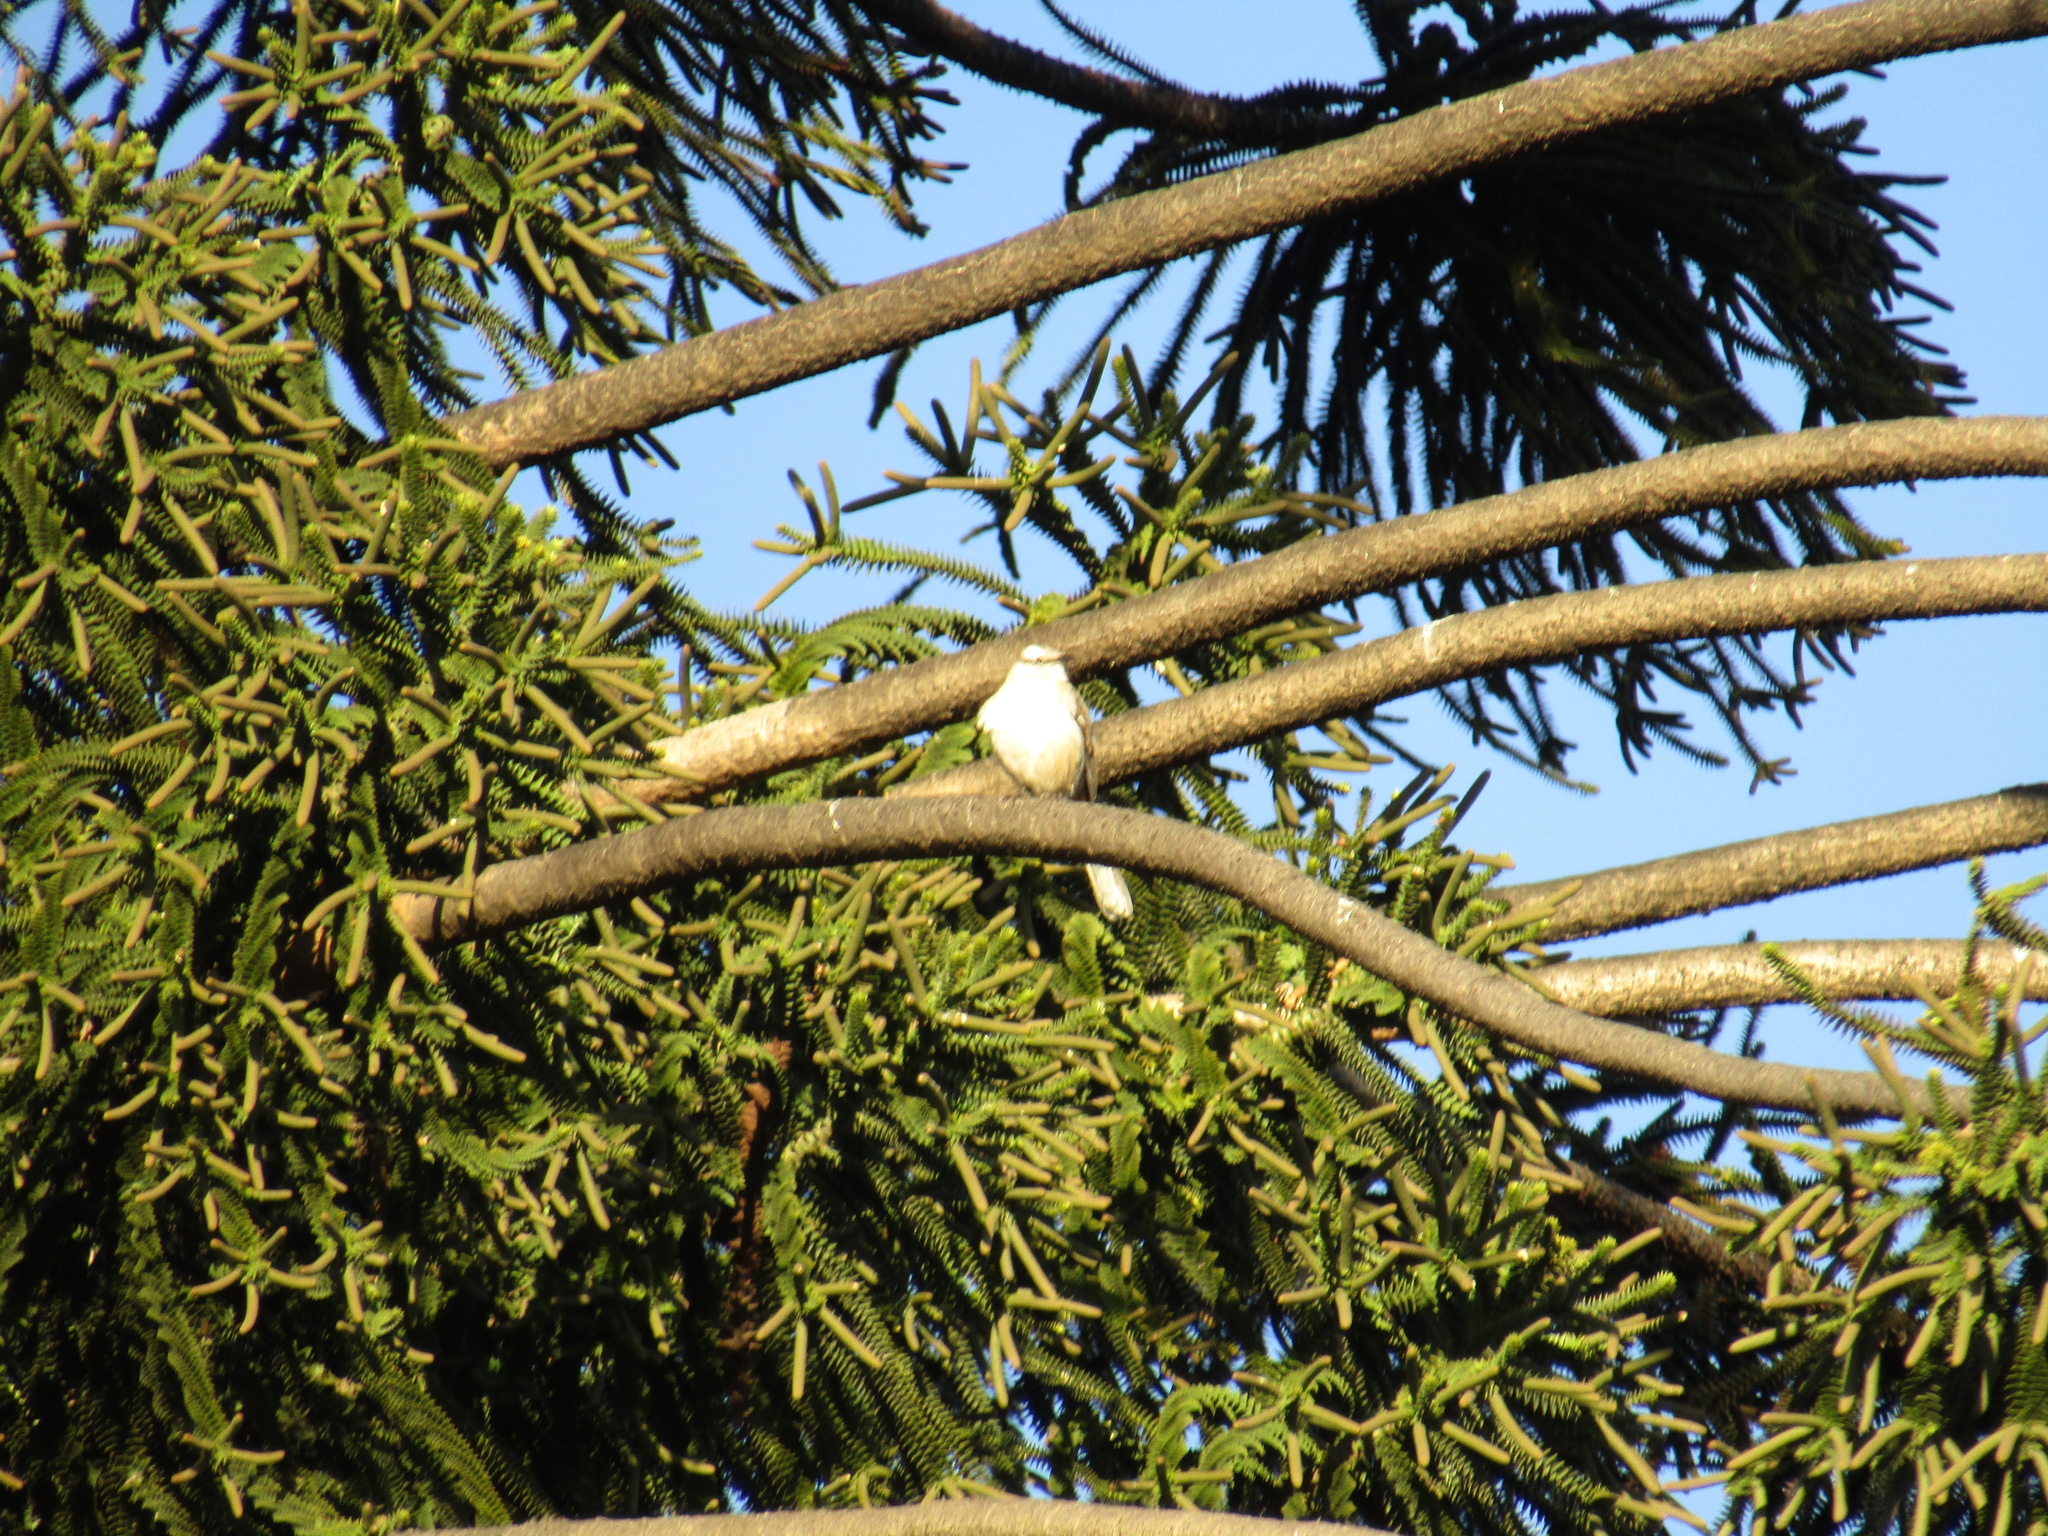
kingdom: Animalia
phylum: Chordata
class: Aves
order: Passeriformes
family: Mimidae
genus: Mimus
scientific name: Mimus saturninus
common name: Chalk-browed mockingbird
